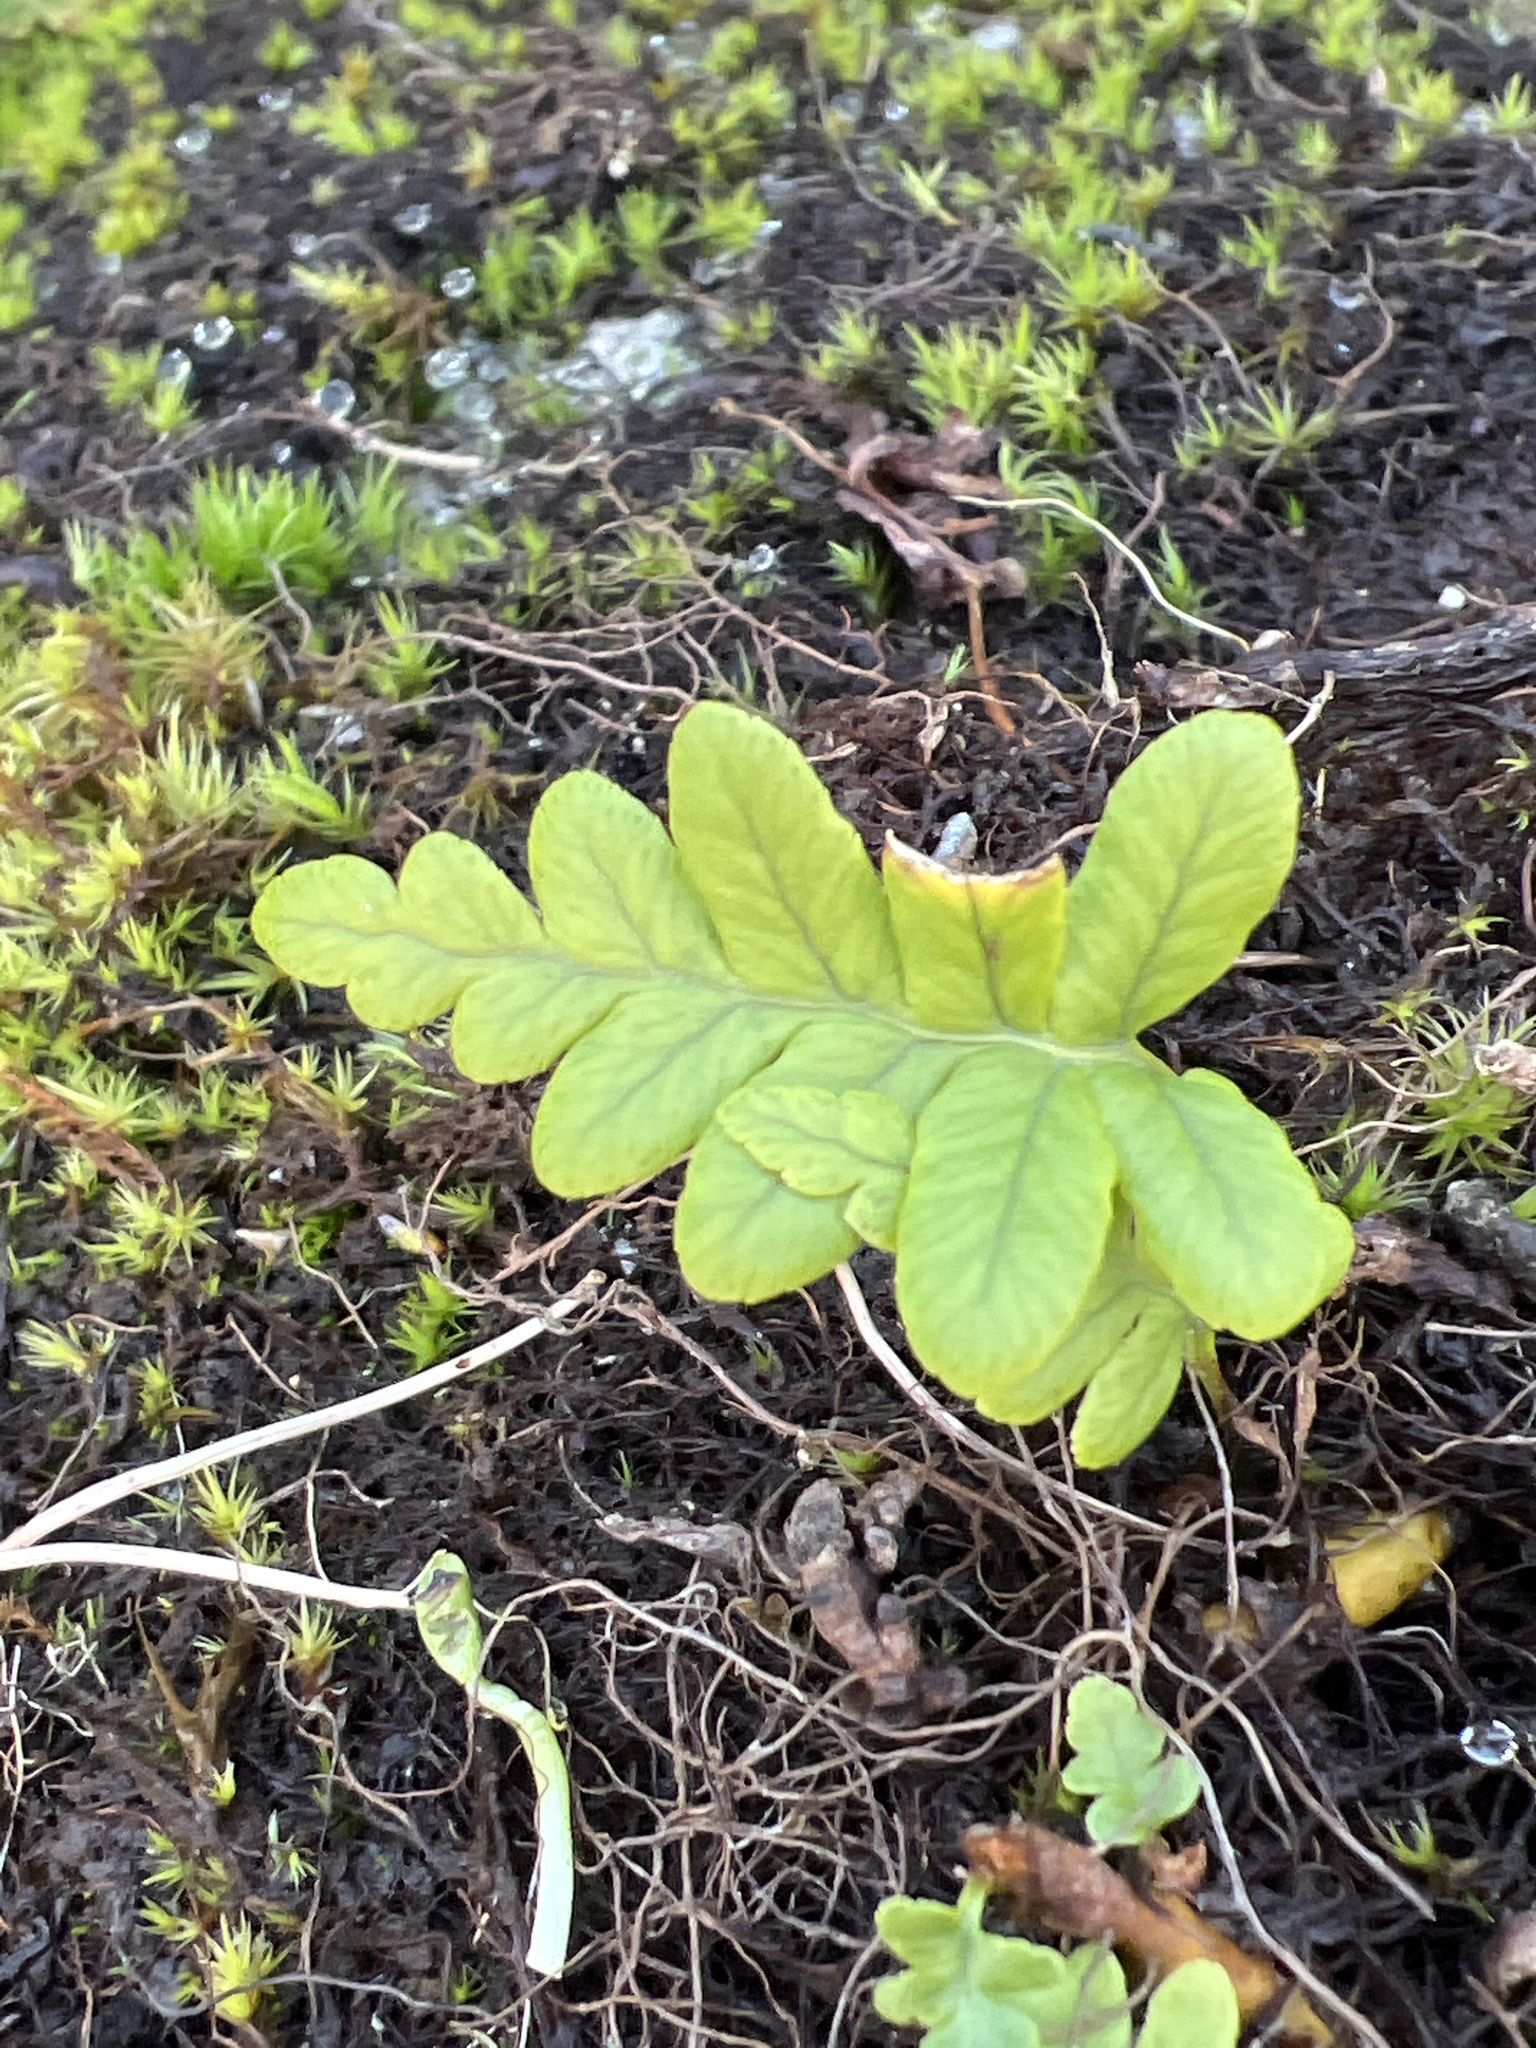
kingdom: Plantae
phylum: Tracheophyta
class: Polypodiopsida
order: Polypodiales
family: Polypodiaceae
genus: Polypodium
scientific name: Polypodium glycyrrhiza
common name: Licorice fern
